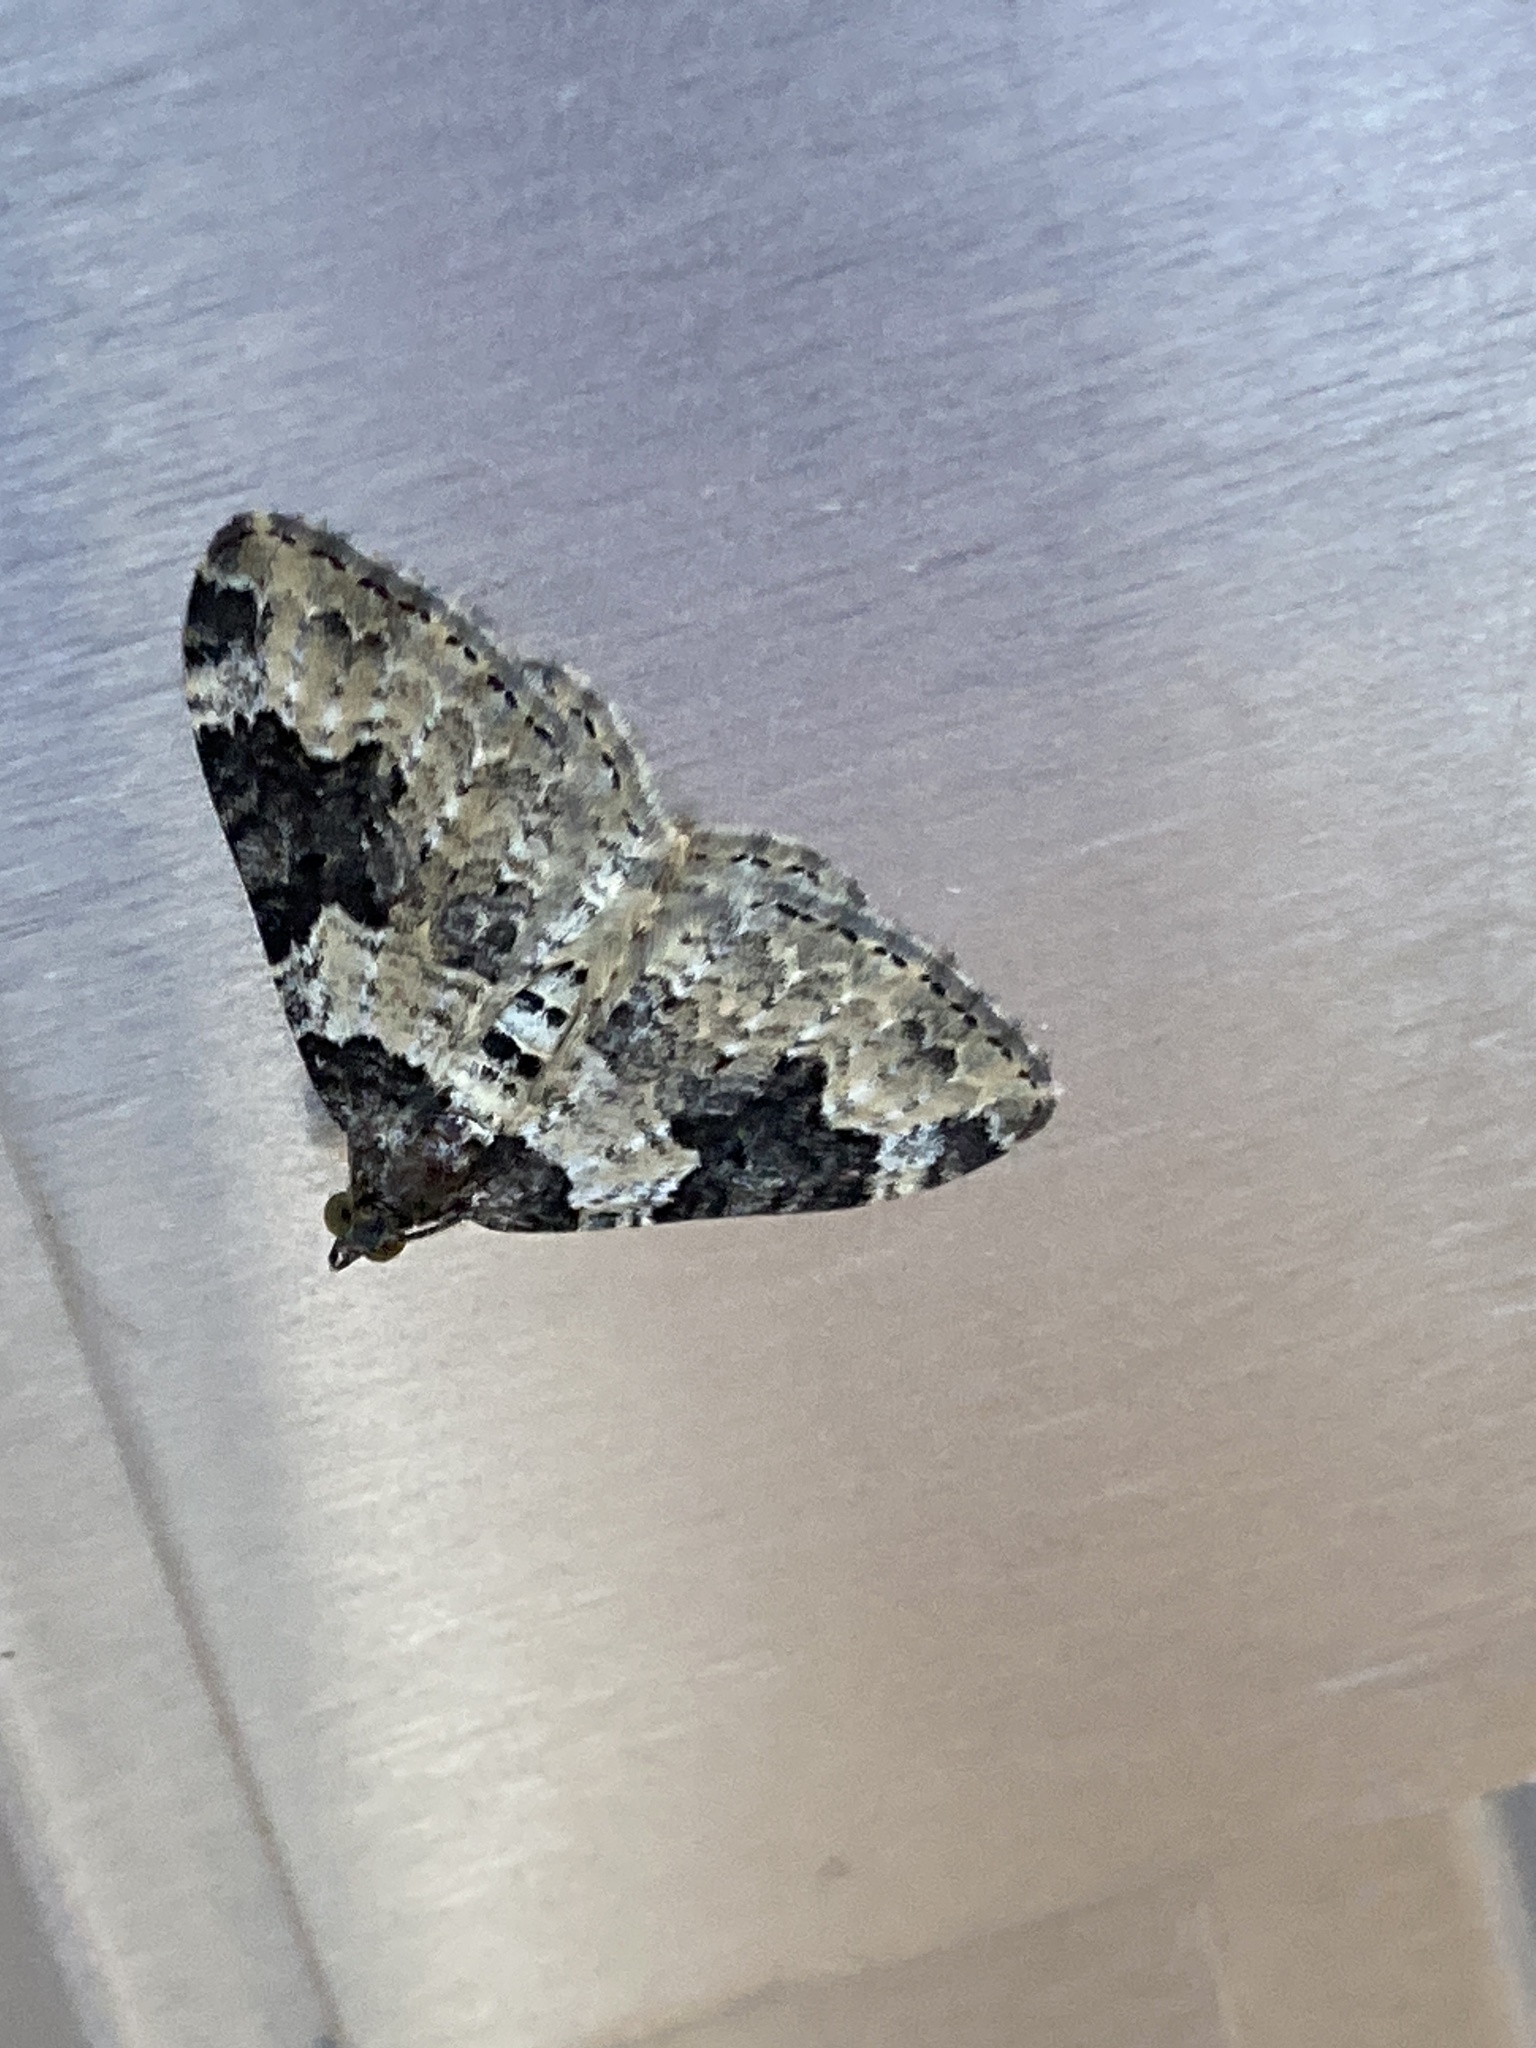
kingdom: Animalia
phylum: Arthropoda
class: Insecta
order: Lepidoptera
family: Geometridae
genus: Xanthorhoe
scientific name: Xanthorhoe fluctuata
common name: Garden carpet
